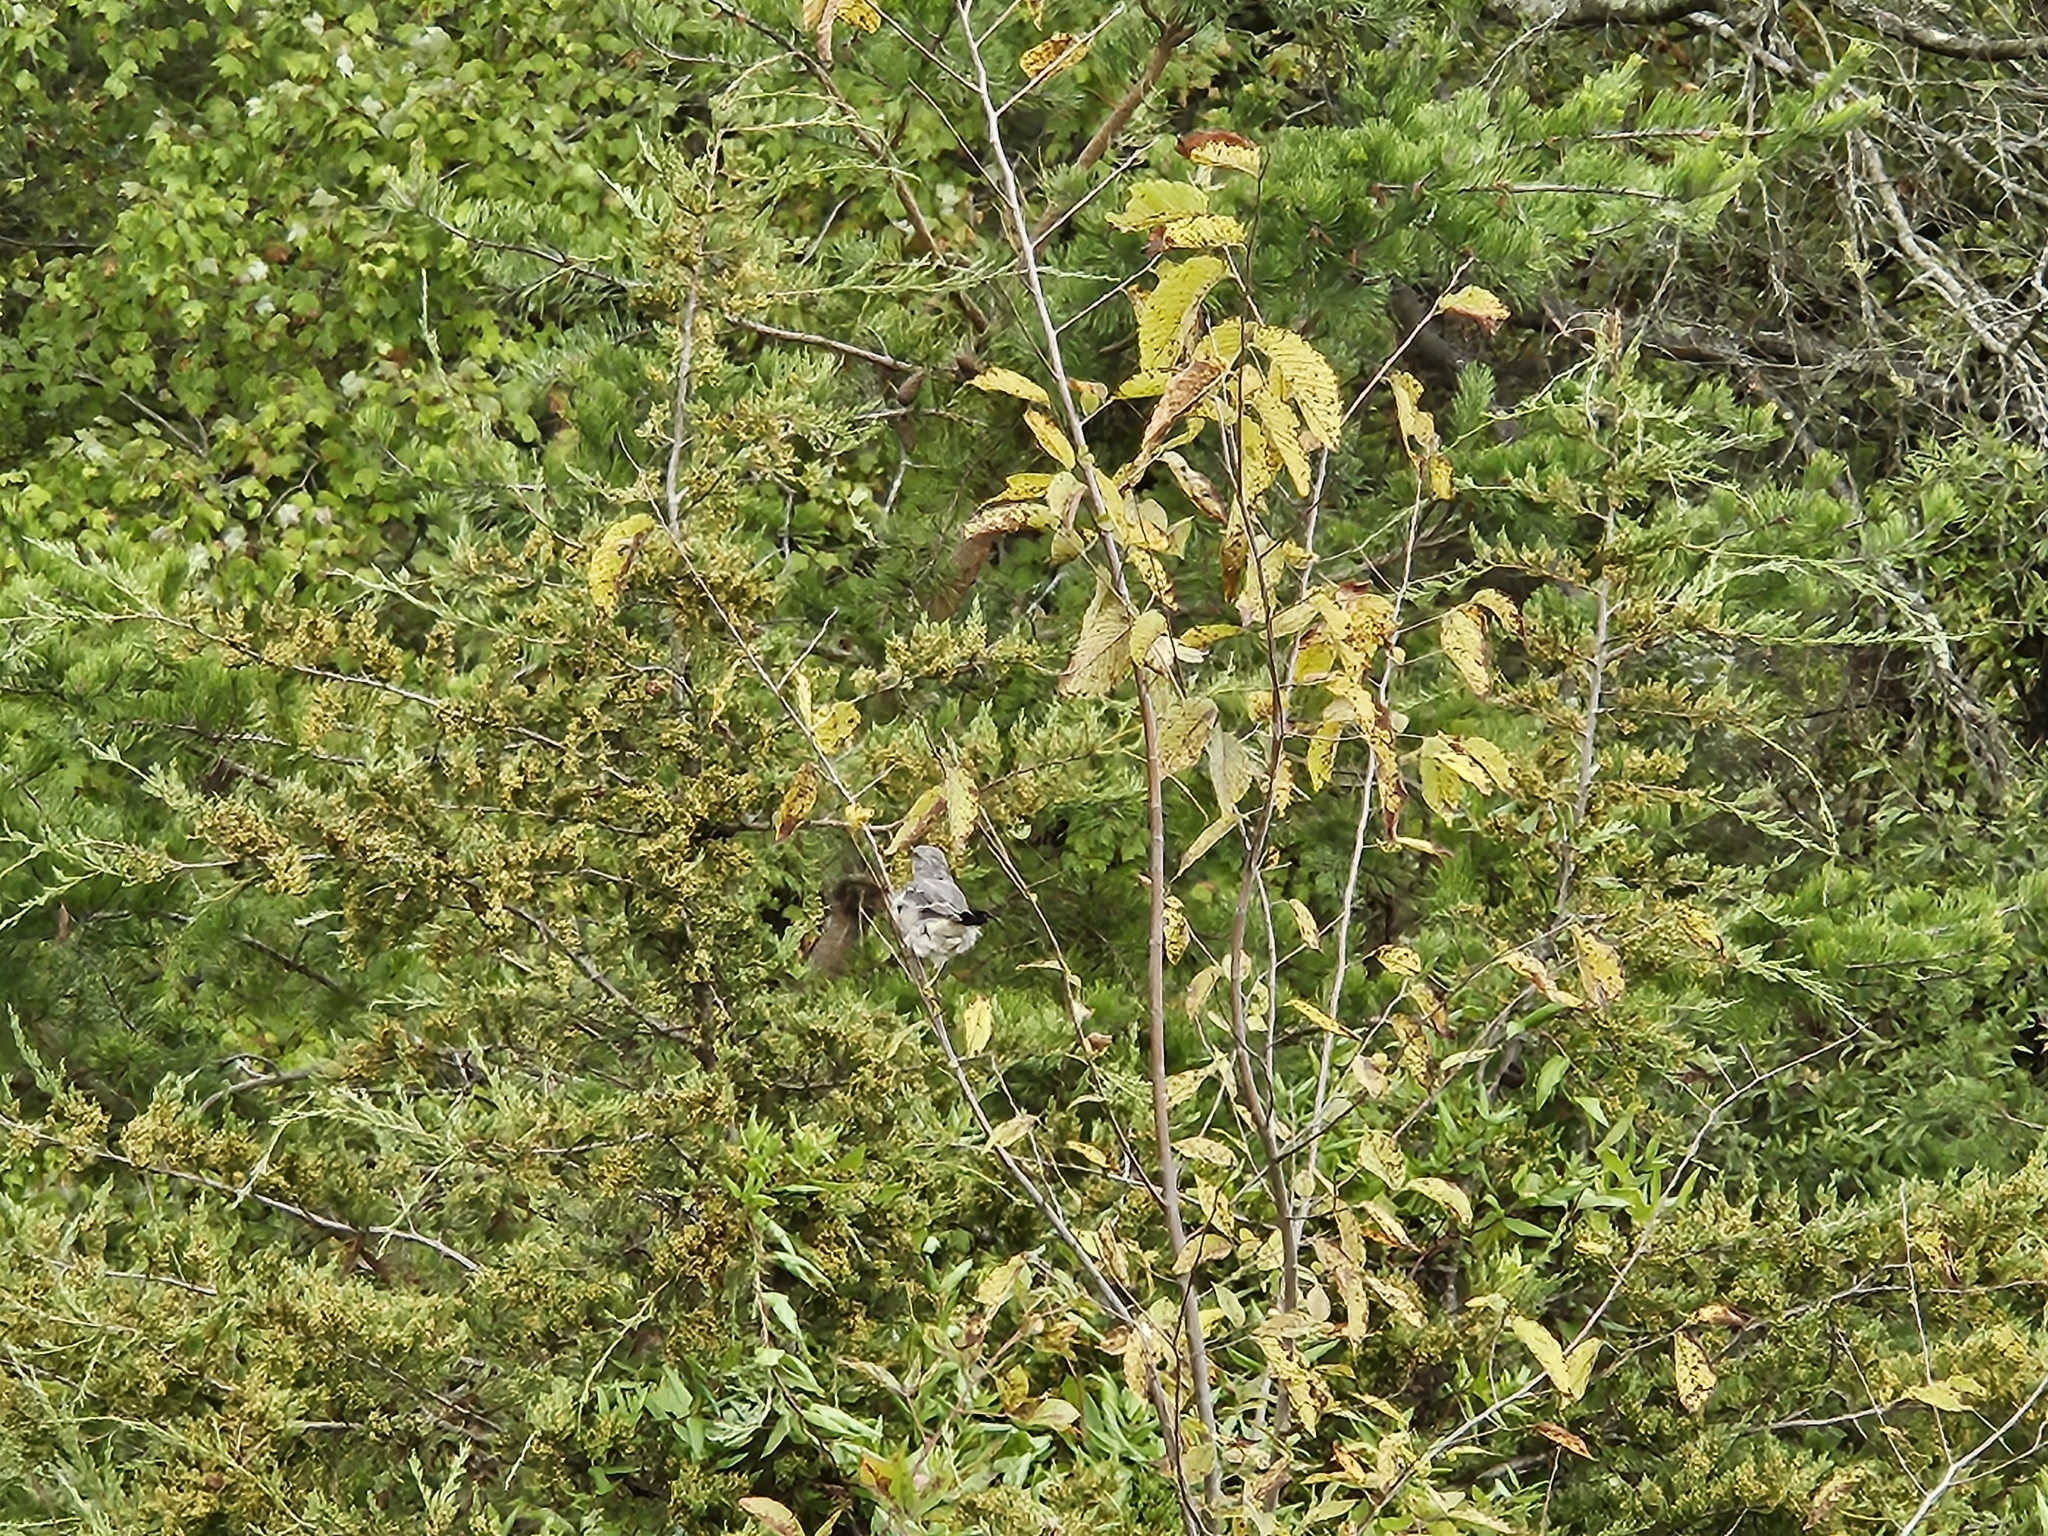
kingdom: Animalia
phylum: Chordata
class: Aves
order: Passeriformes
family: Mimidae
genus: Mimus
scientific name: Mimus polyglottos
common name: Northern mockingbird
